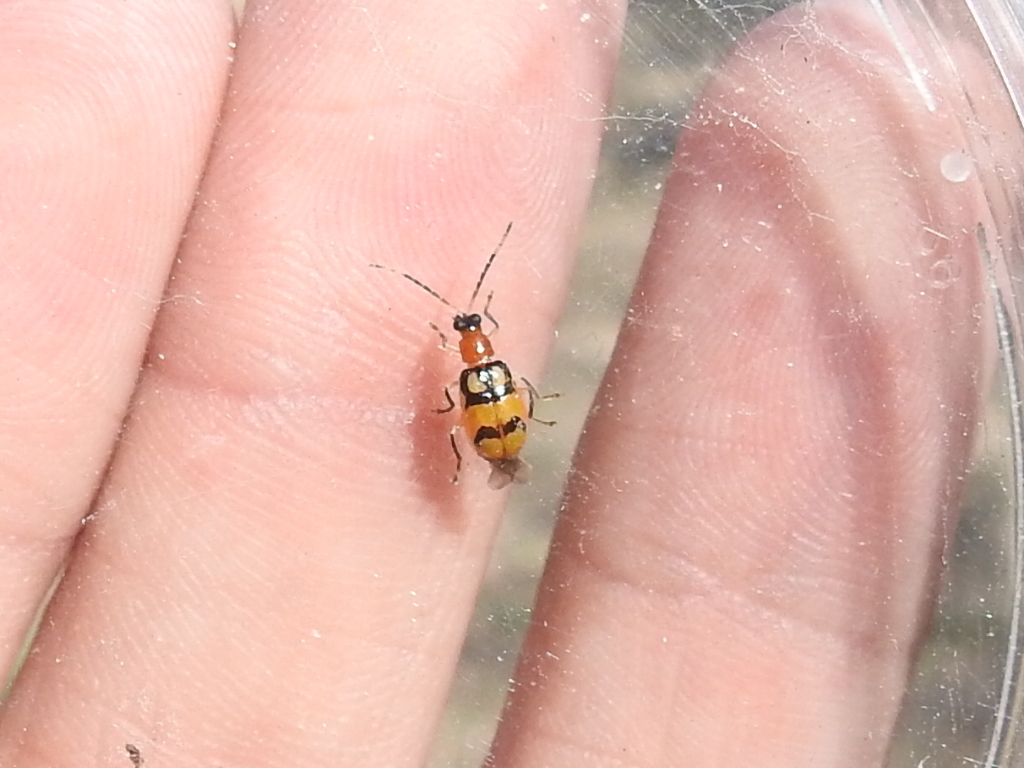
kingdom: Animalia
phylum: Arthropoda
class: Insecta
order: Coleoptera
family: Chrysomelidae
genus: Diabrotica
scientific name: Diabrotica adelpha
